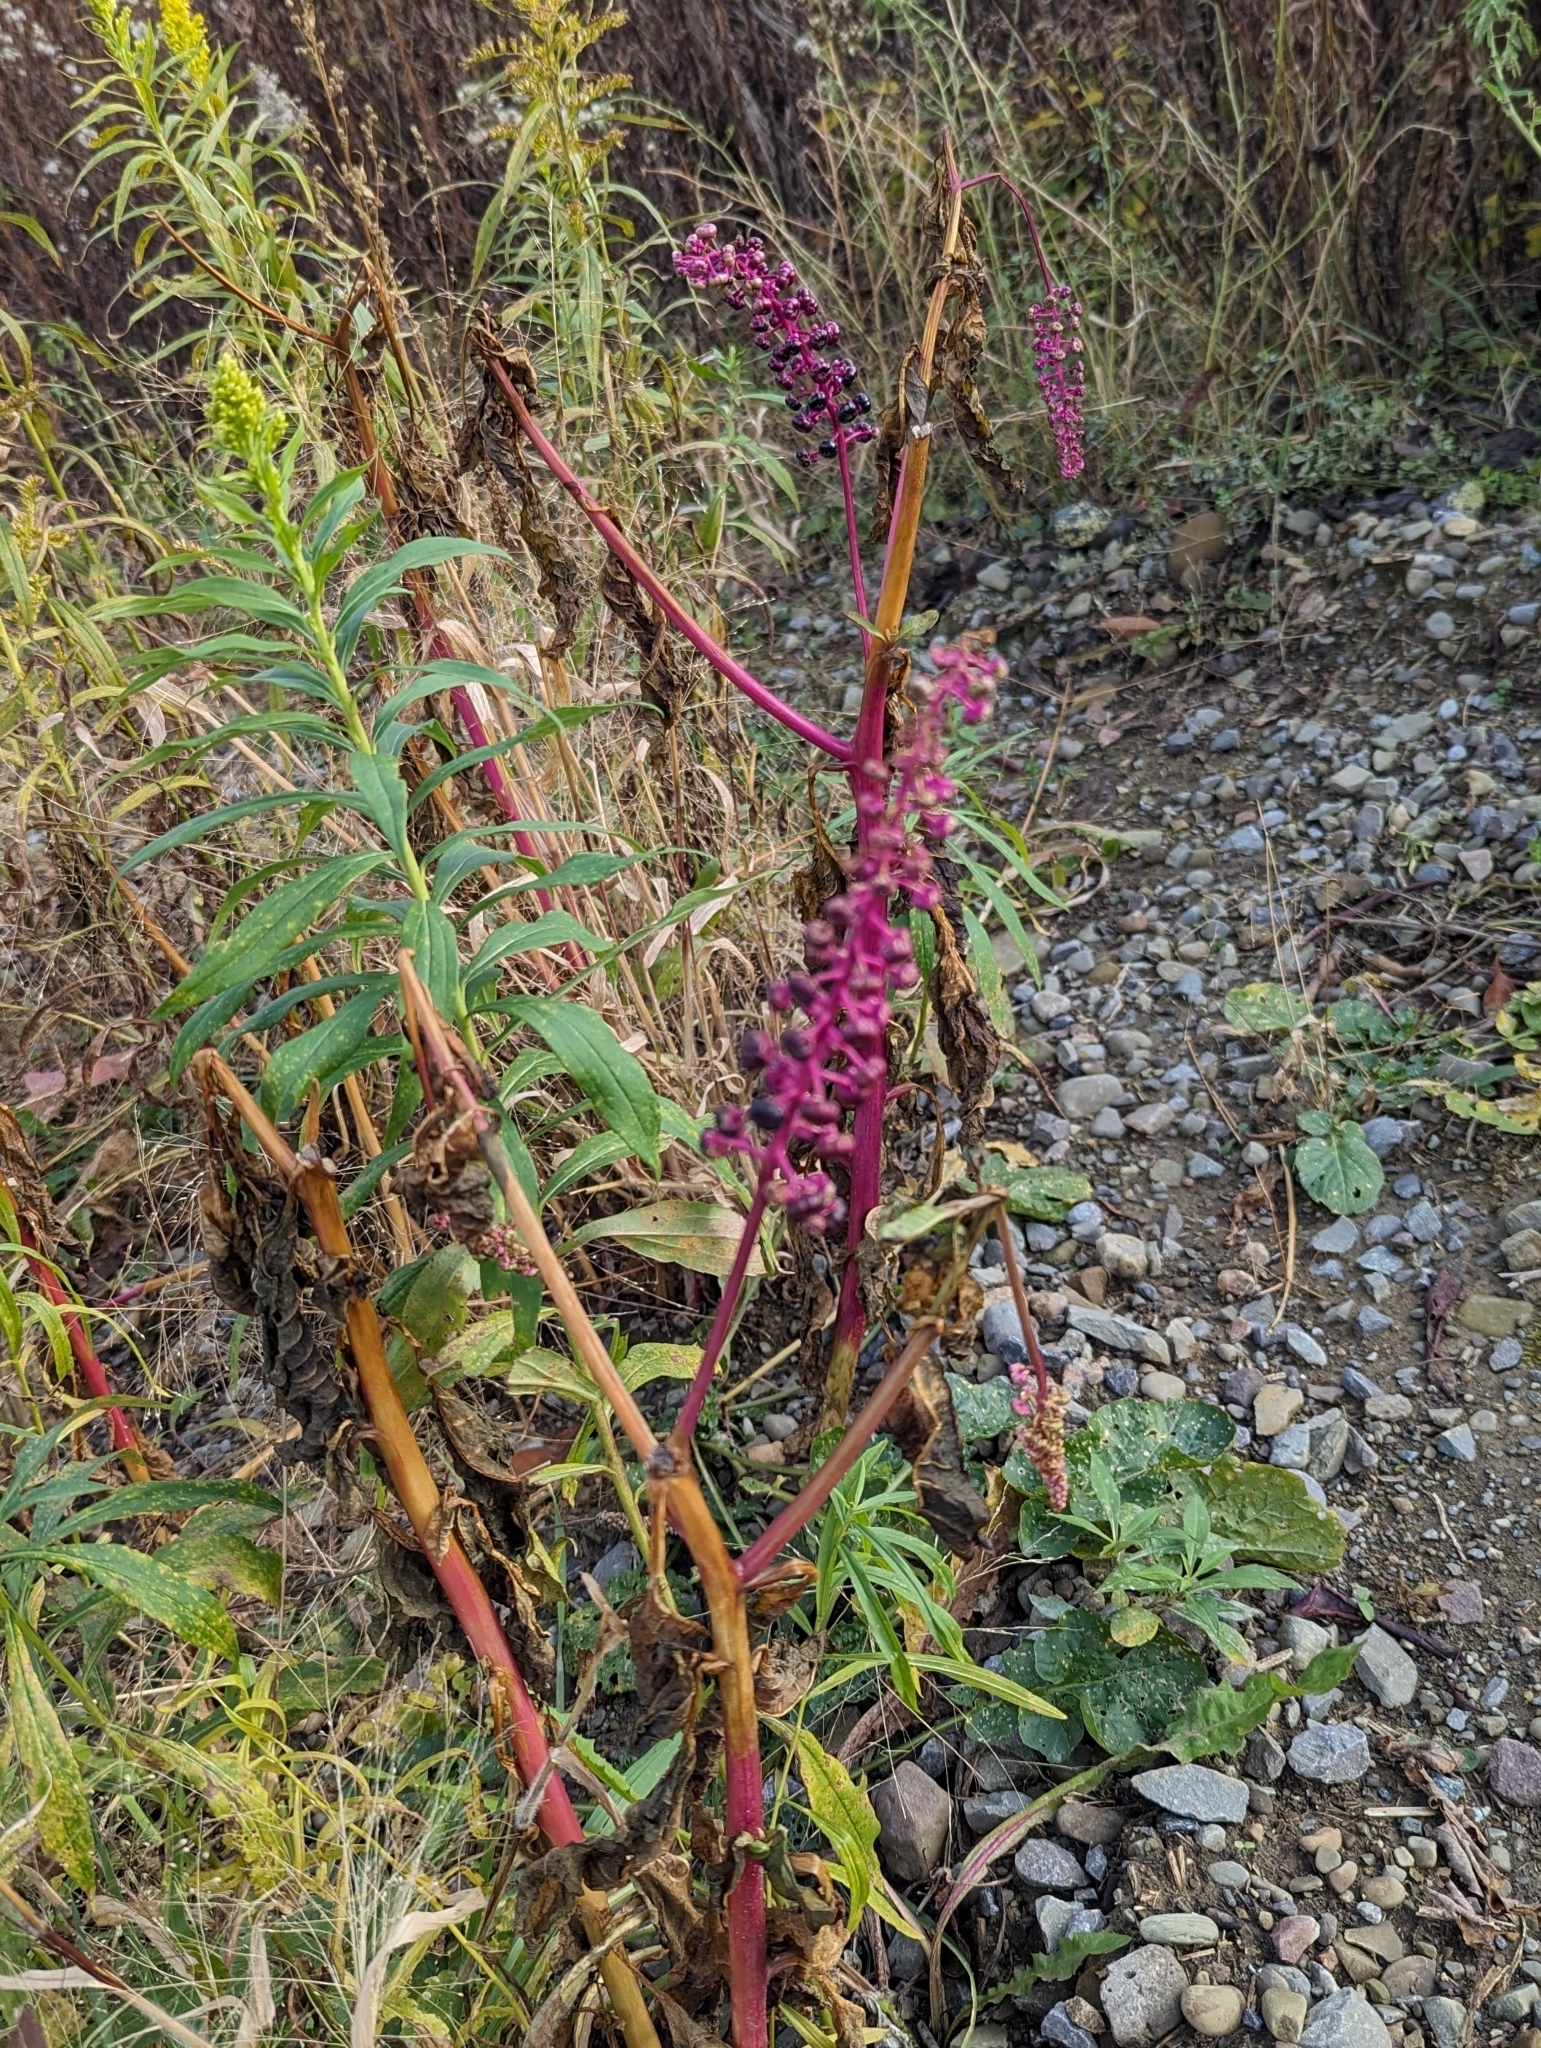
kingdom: Plantae
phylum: Tracheophyta
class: Magnoliopsida
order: Caryophyllales
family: Phytolaccaceae
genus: Phytolacca
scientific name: Phytolacca americana
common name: American pokeweed
